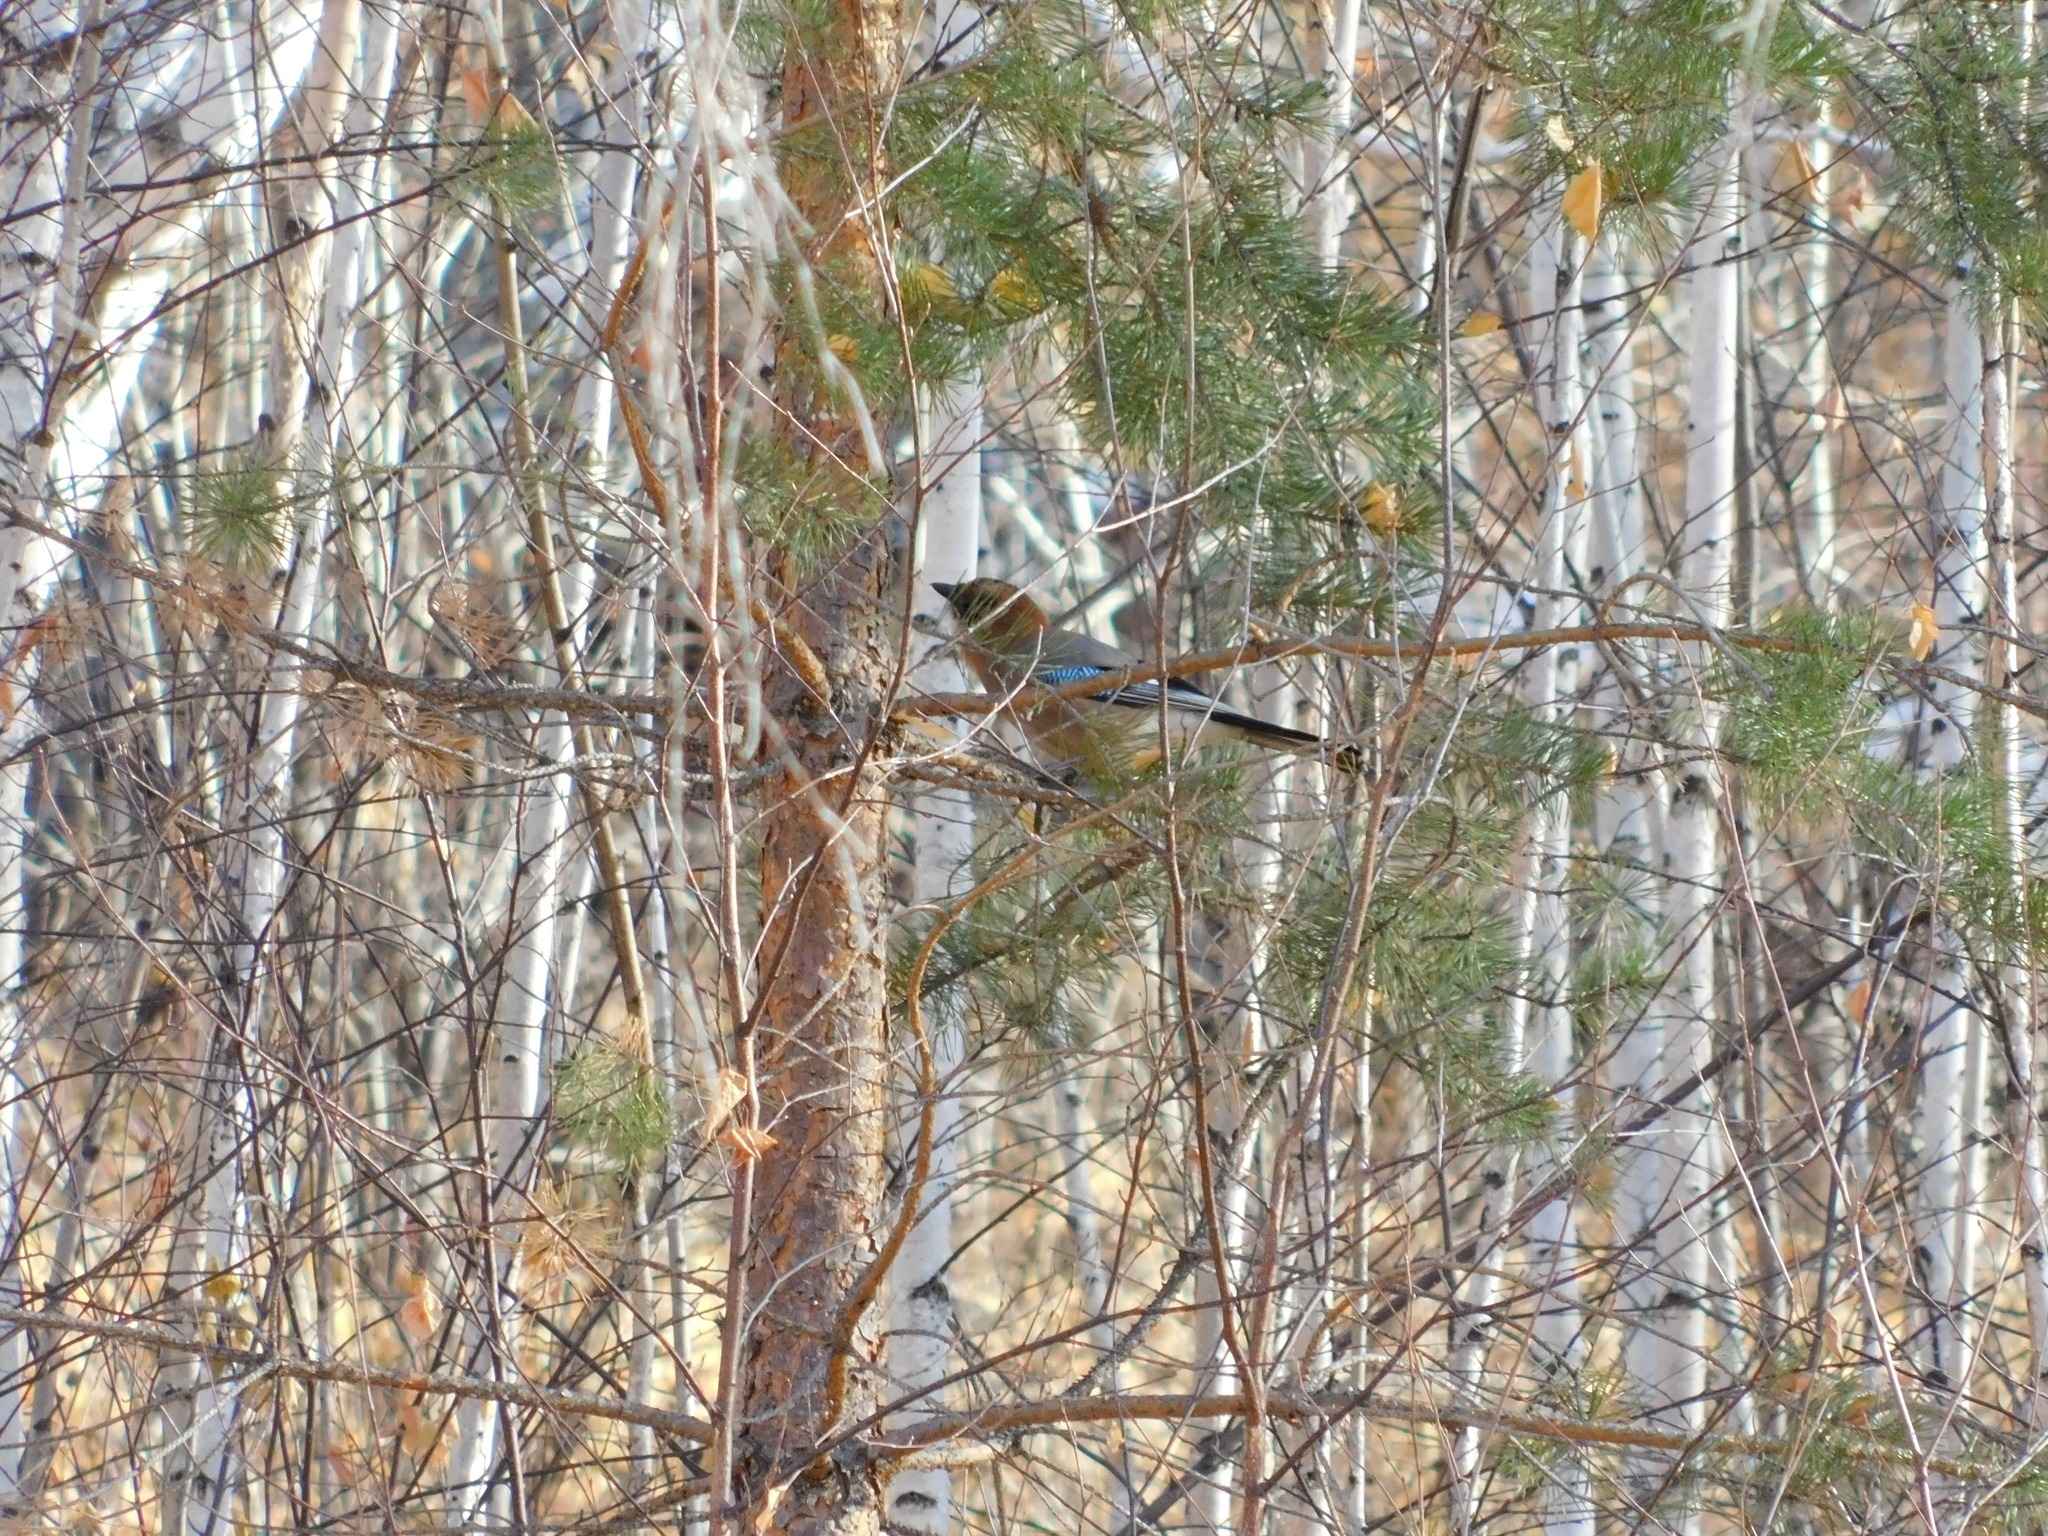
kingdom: Animalia
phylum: Chordata
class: Aves
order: Passeriformes
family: Corvidae
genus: Garrulus
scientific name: Garrulus glandarius
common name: Eurasian jay
